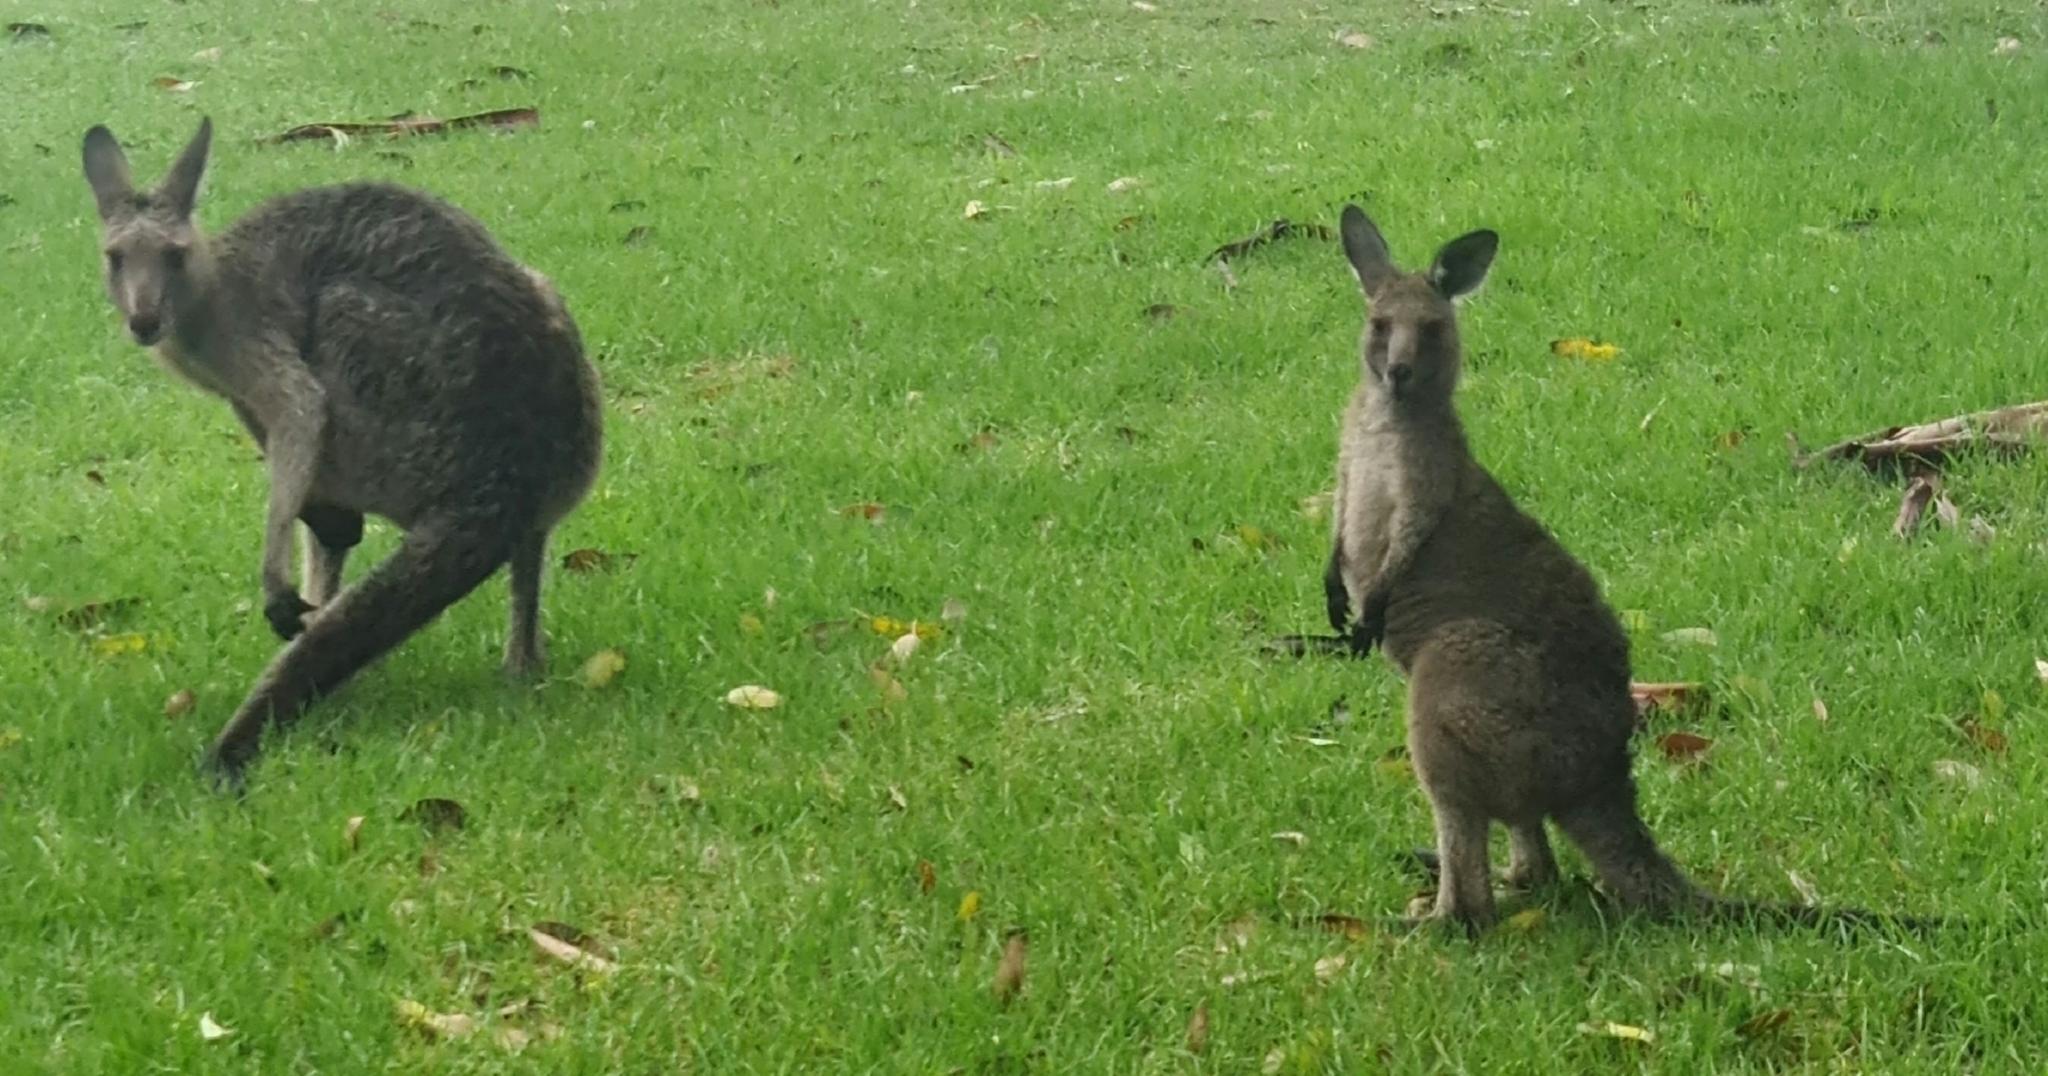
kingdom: Animalia
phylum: Chordata
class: Mammalia
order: Diprotodontia
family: Macropodidae
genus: Macropus
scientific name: Macropus giganteus
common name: Eastern grey kangaroo
